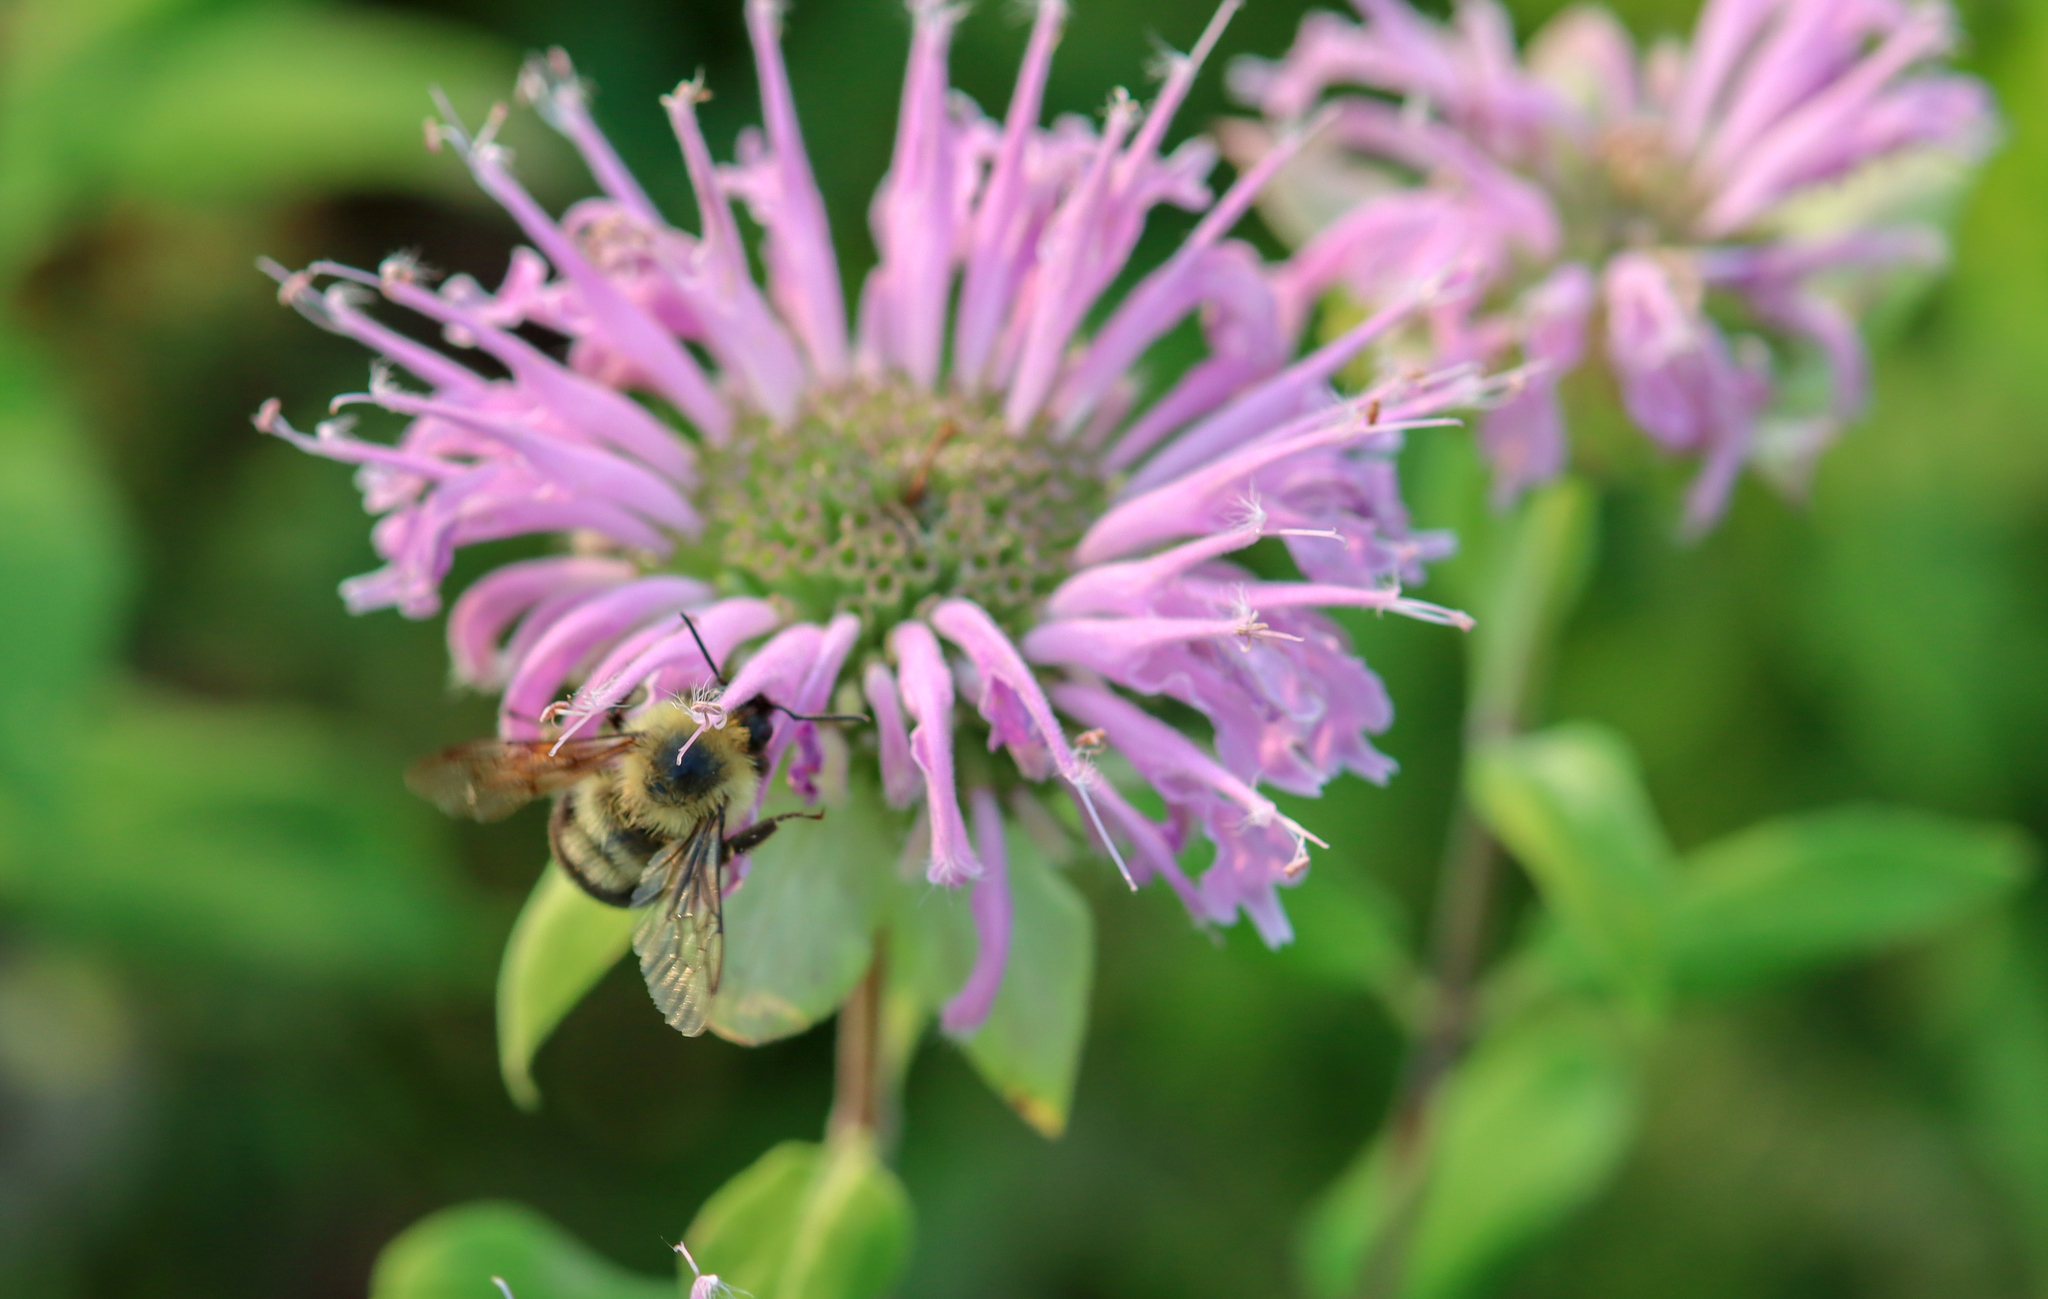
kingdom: Animalia
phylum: Arthropoda
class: Insecta
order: Hymenoptera
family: Apidae
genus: Bombus
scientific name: Bombus bimaculatus
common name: Two-spotted bumble bee
